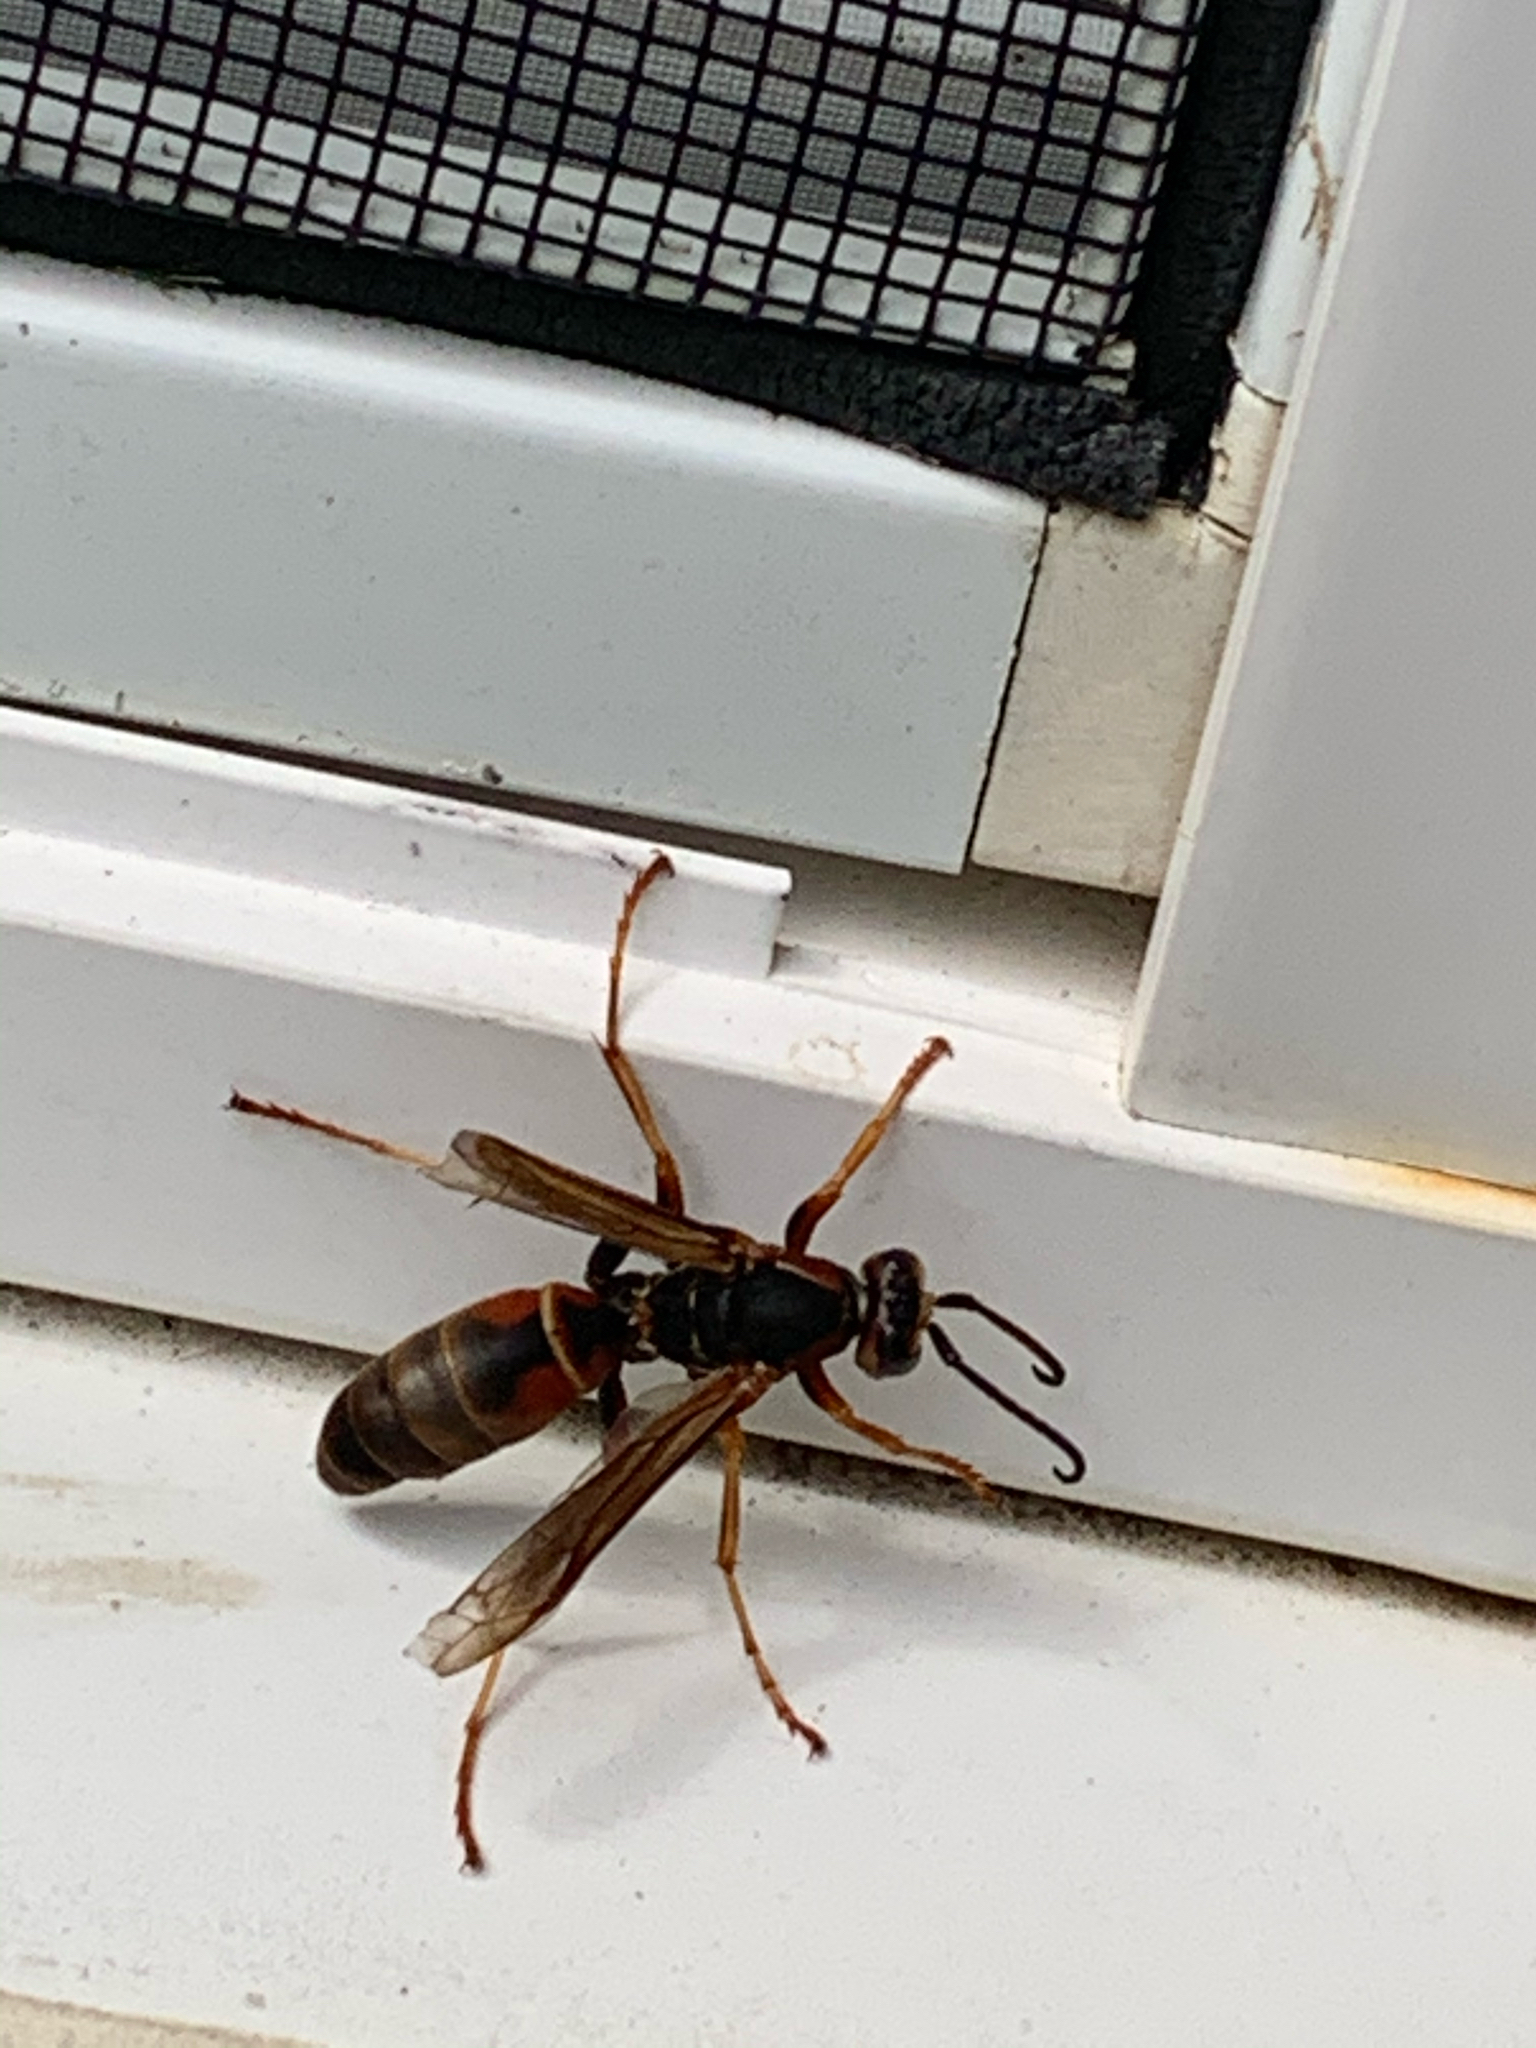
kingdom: Animalia
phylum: Arthropoda
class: Insecta
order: Hymenoptera
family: Eumenidae
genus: Polistes
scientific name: Polistes fuscatus
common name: Dark paper wasp
